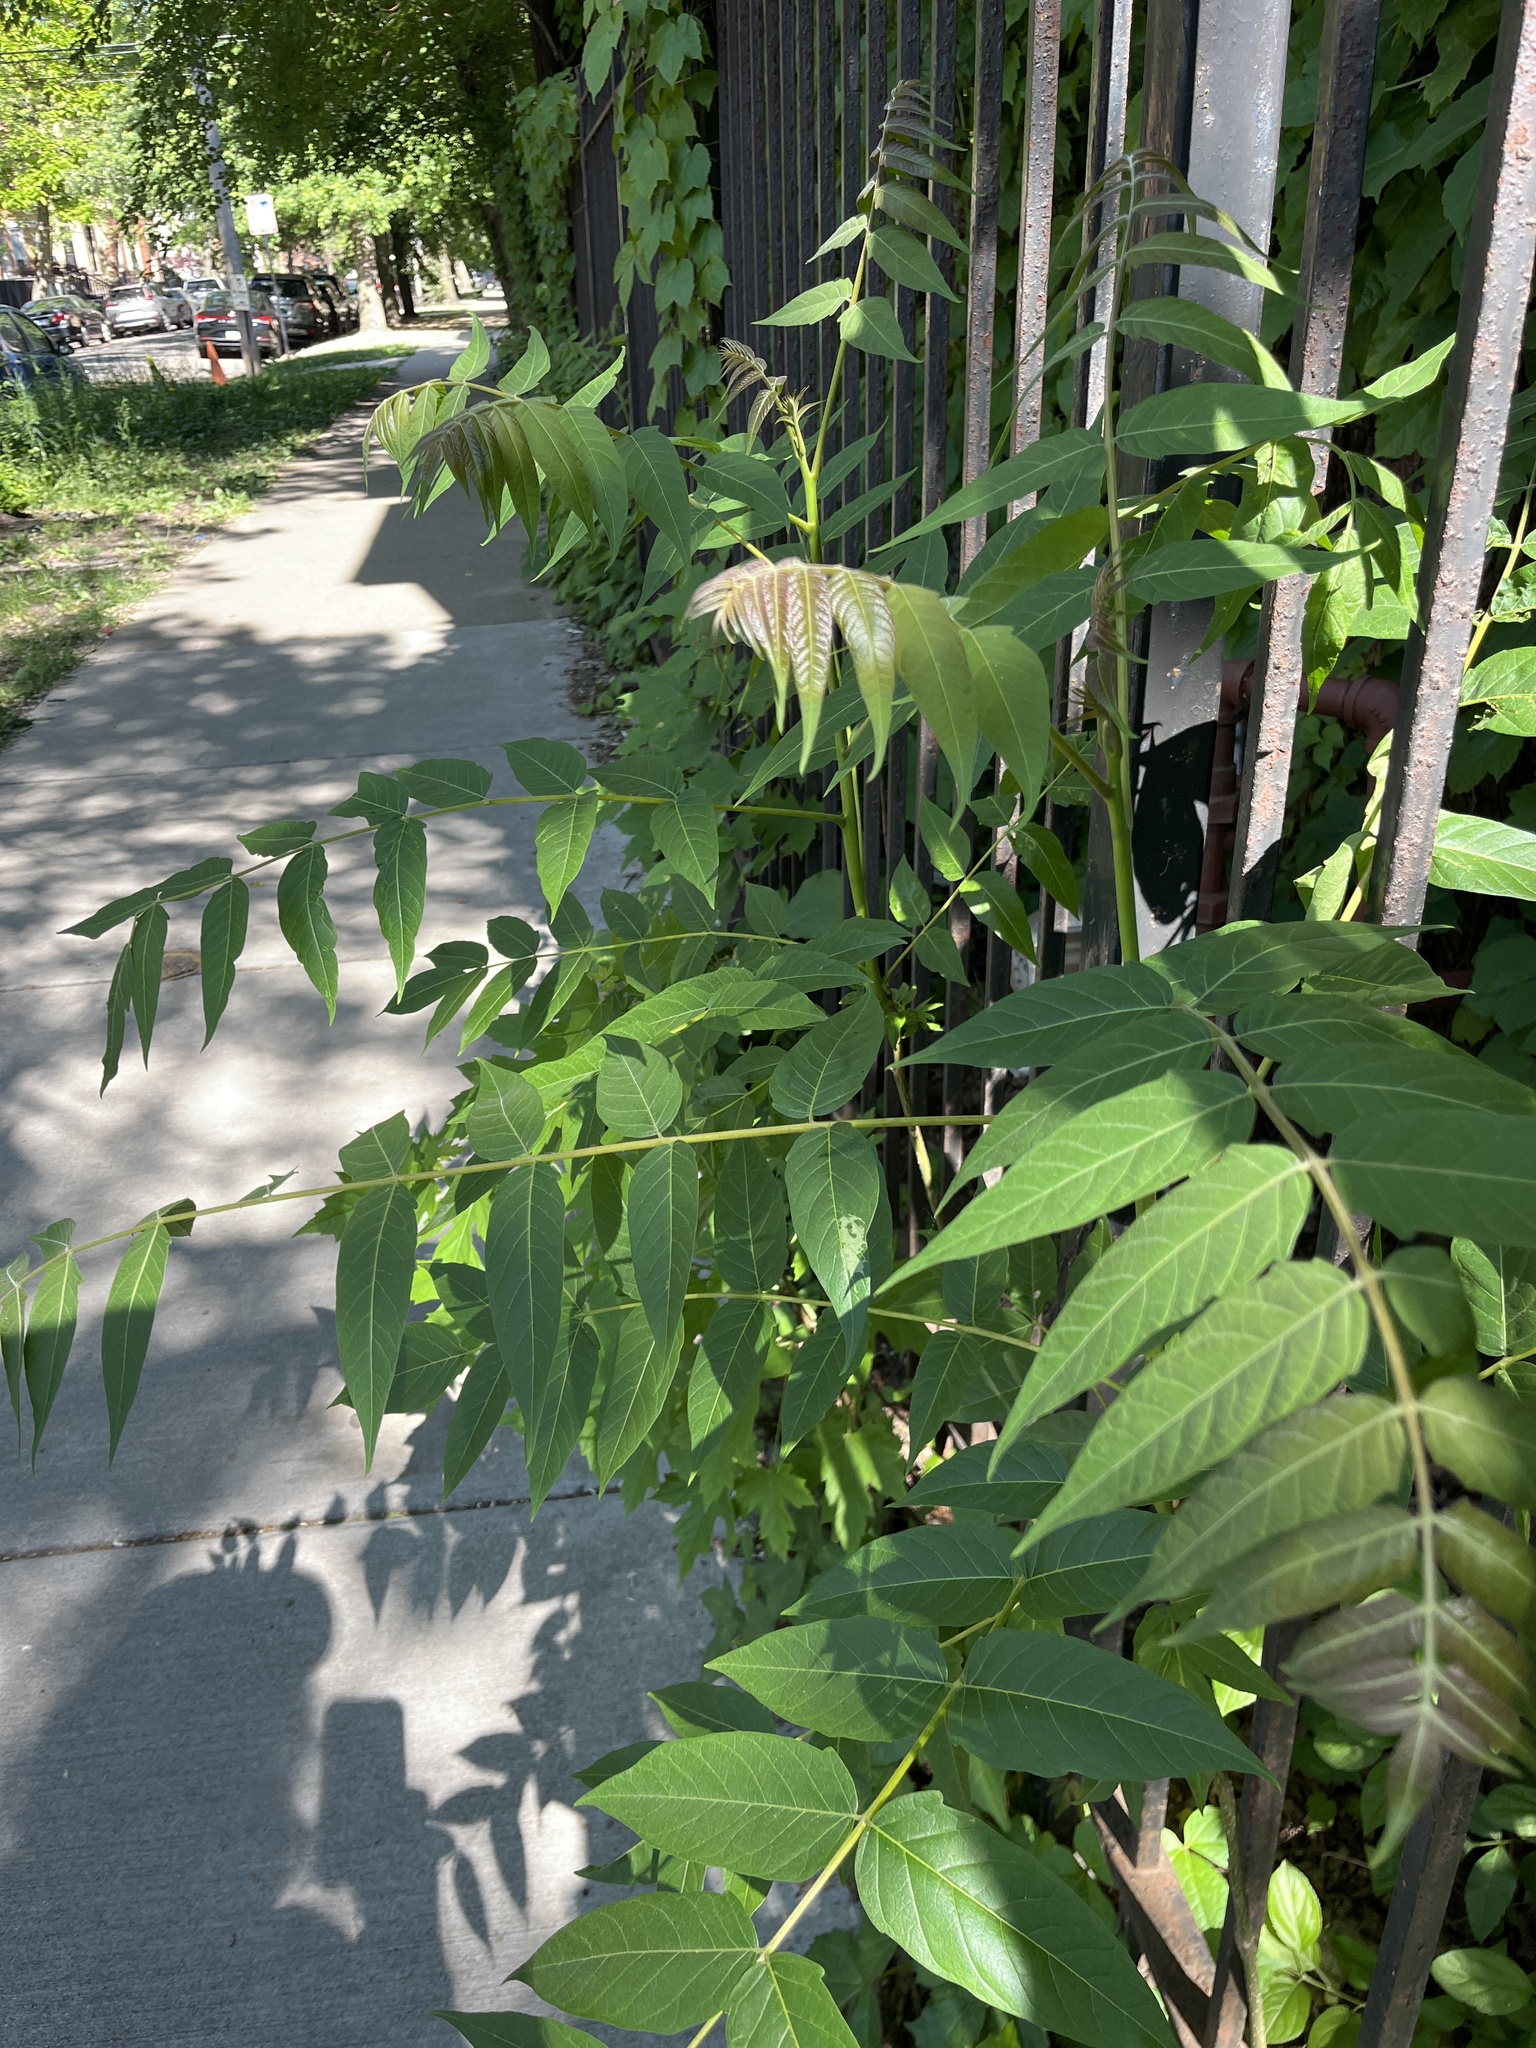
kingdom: Plantae
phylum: Tracheophyta
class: Magnoliopsida
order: Sapindales
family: Simaroubaceae
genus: Ailanthus
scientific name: Ailanthus altissima
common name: Tree-of-heaven
